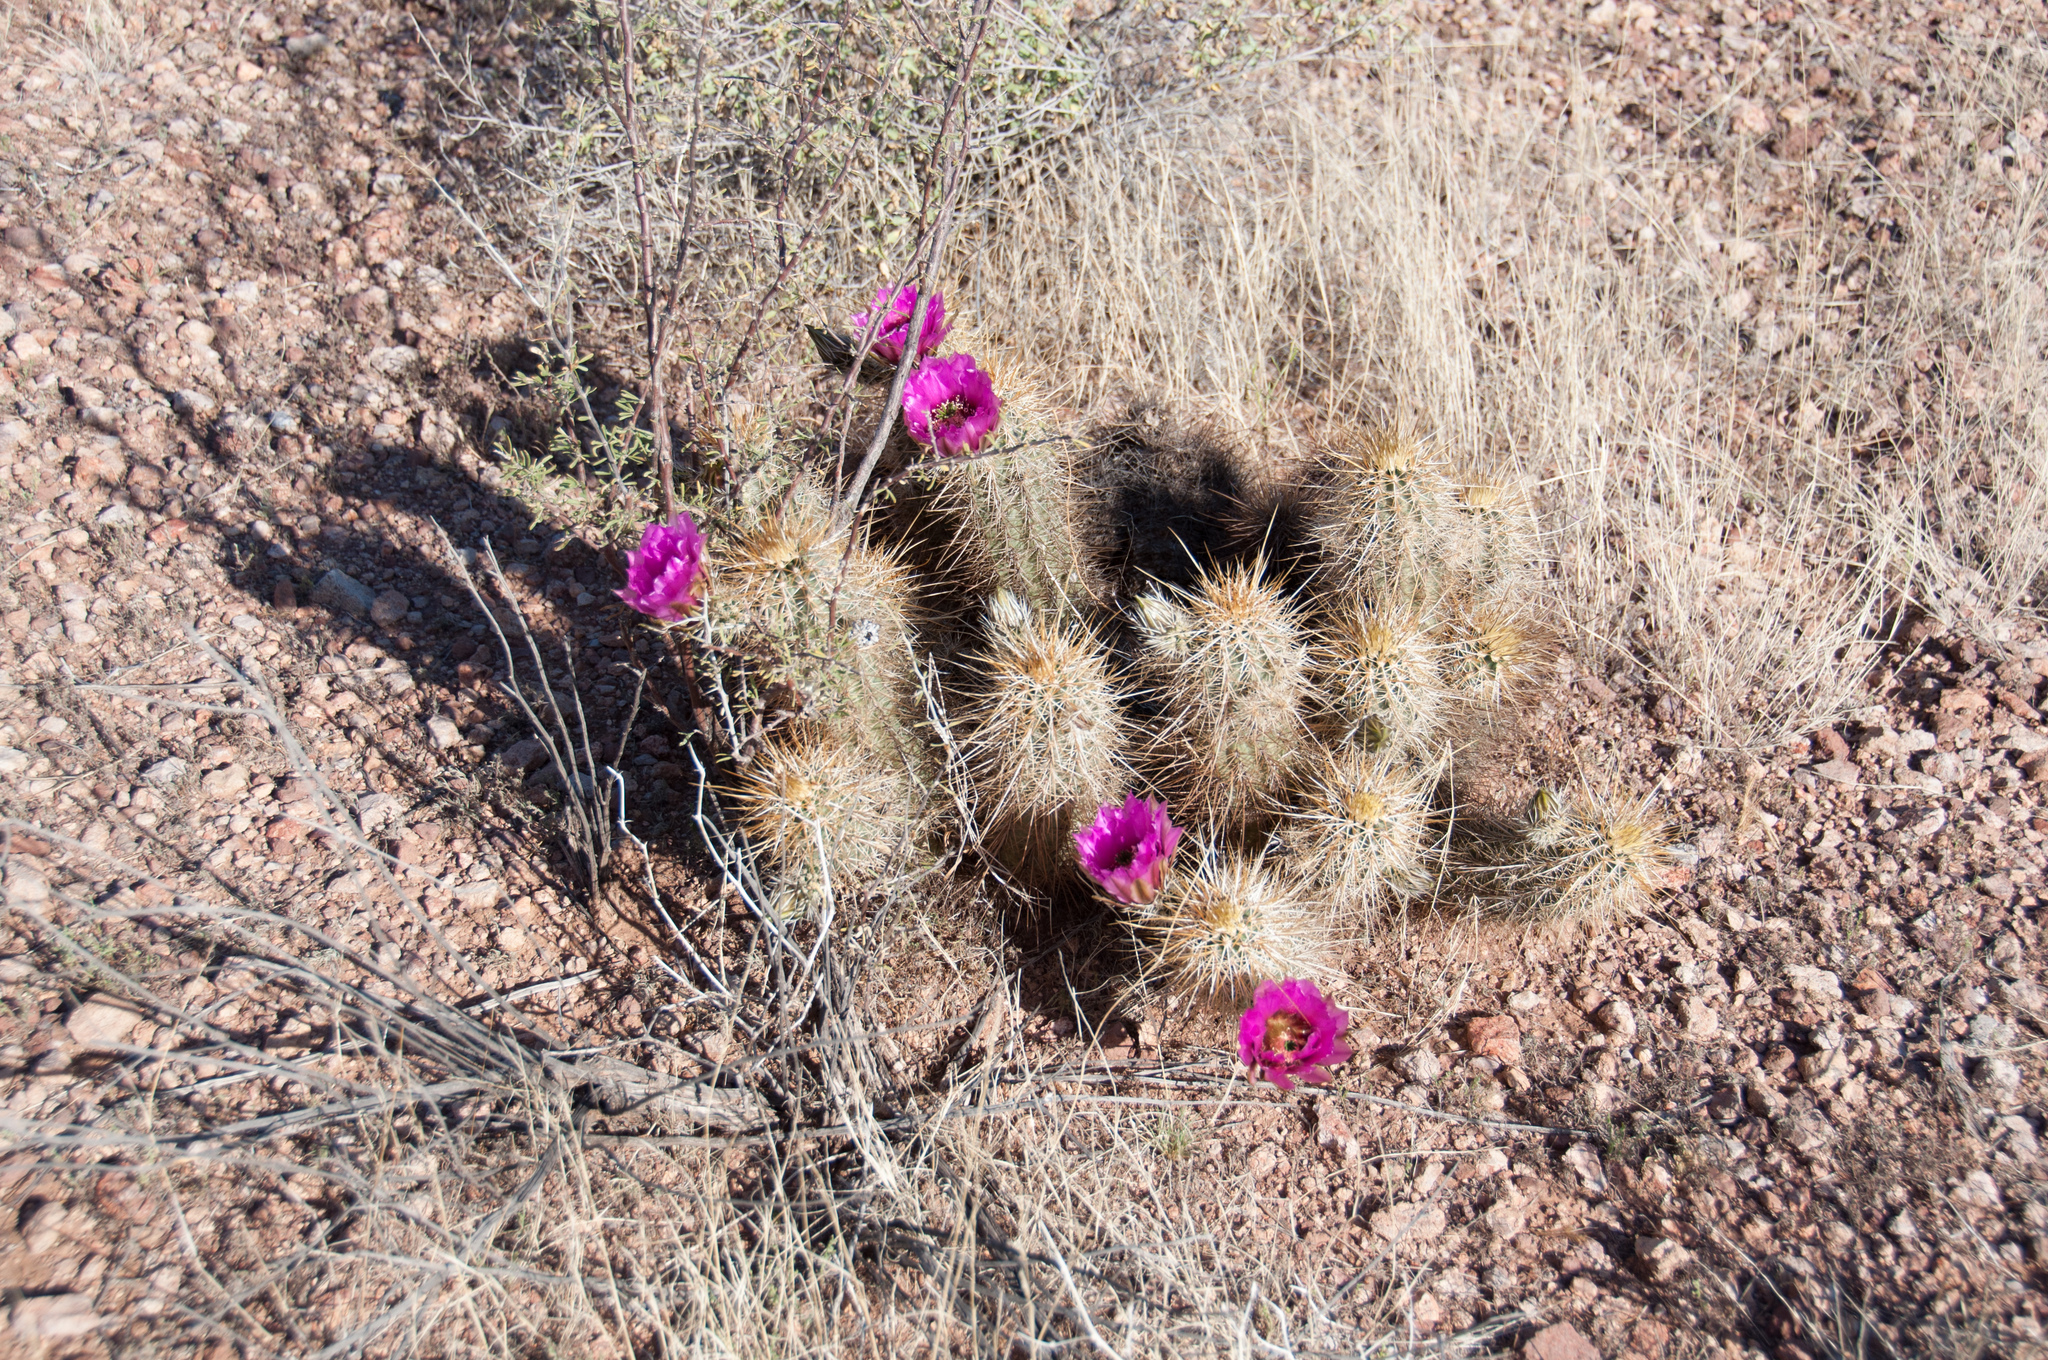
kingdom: Plantae
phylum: Tracheophyta
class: Magnoliopsida
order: Caryophyllales
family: Cactaceae
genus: Echinocereus
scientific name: Echinocereus engelmannii
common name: Engelmann's hedgehog cactus
